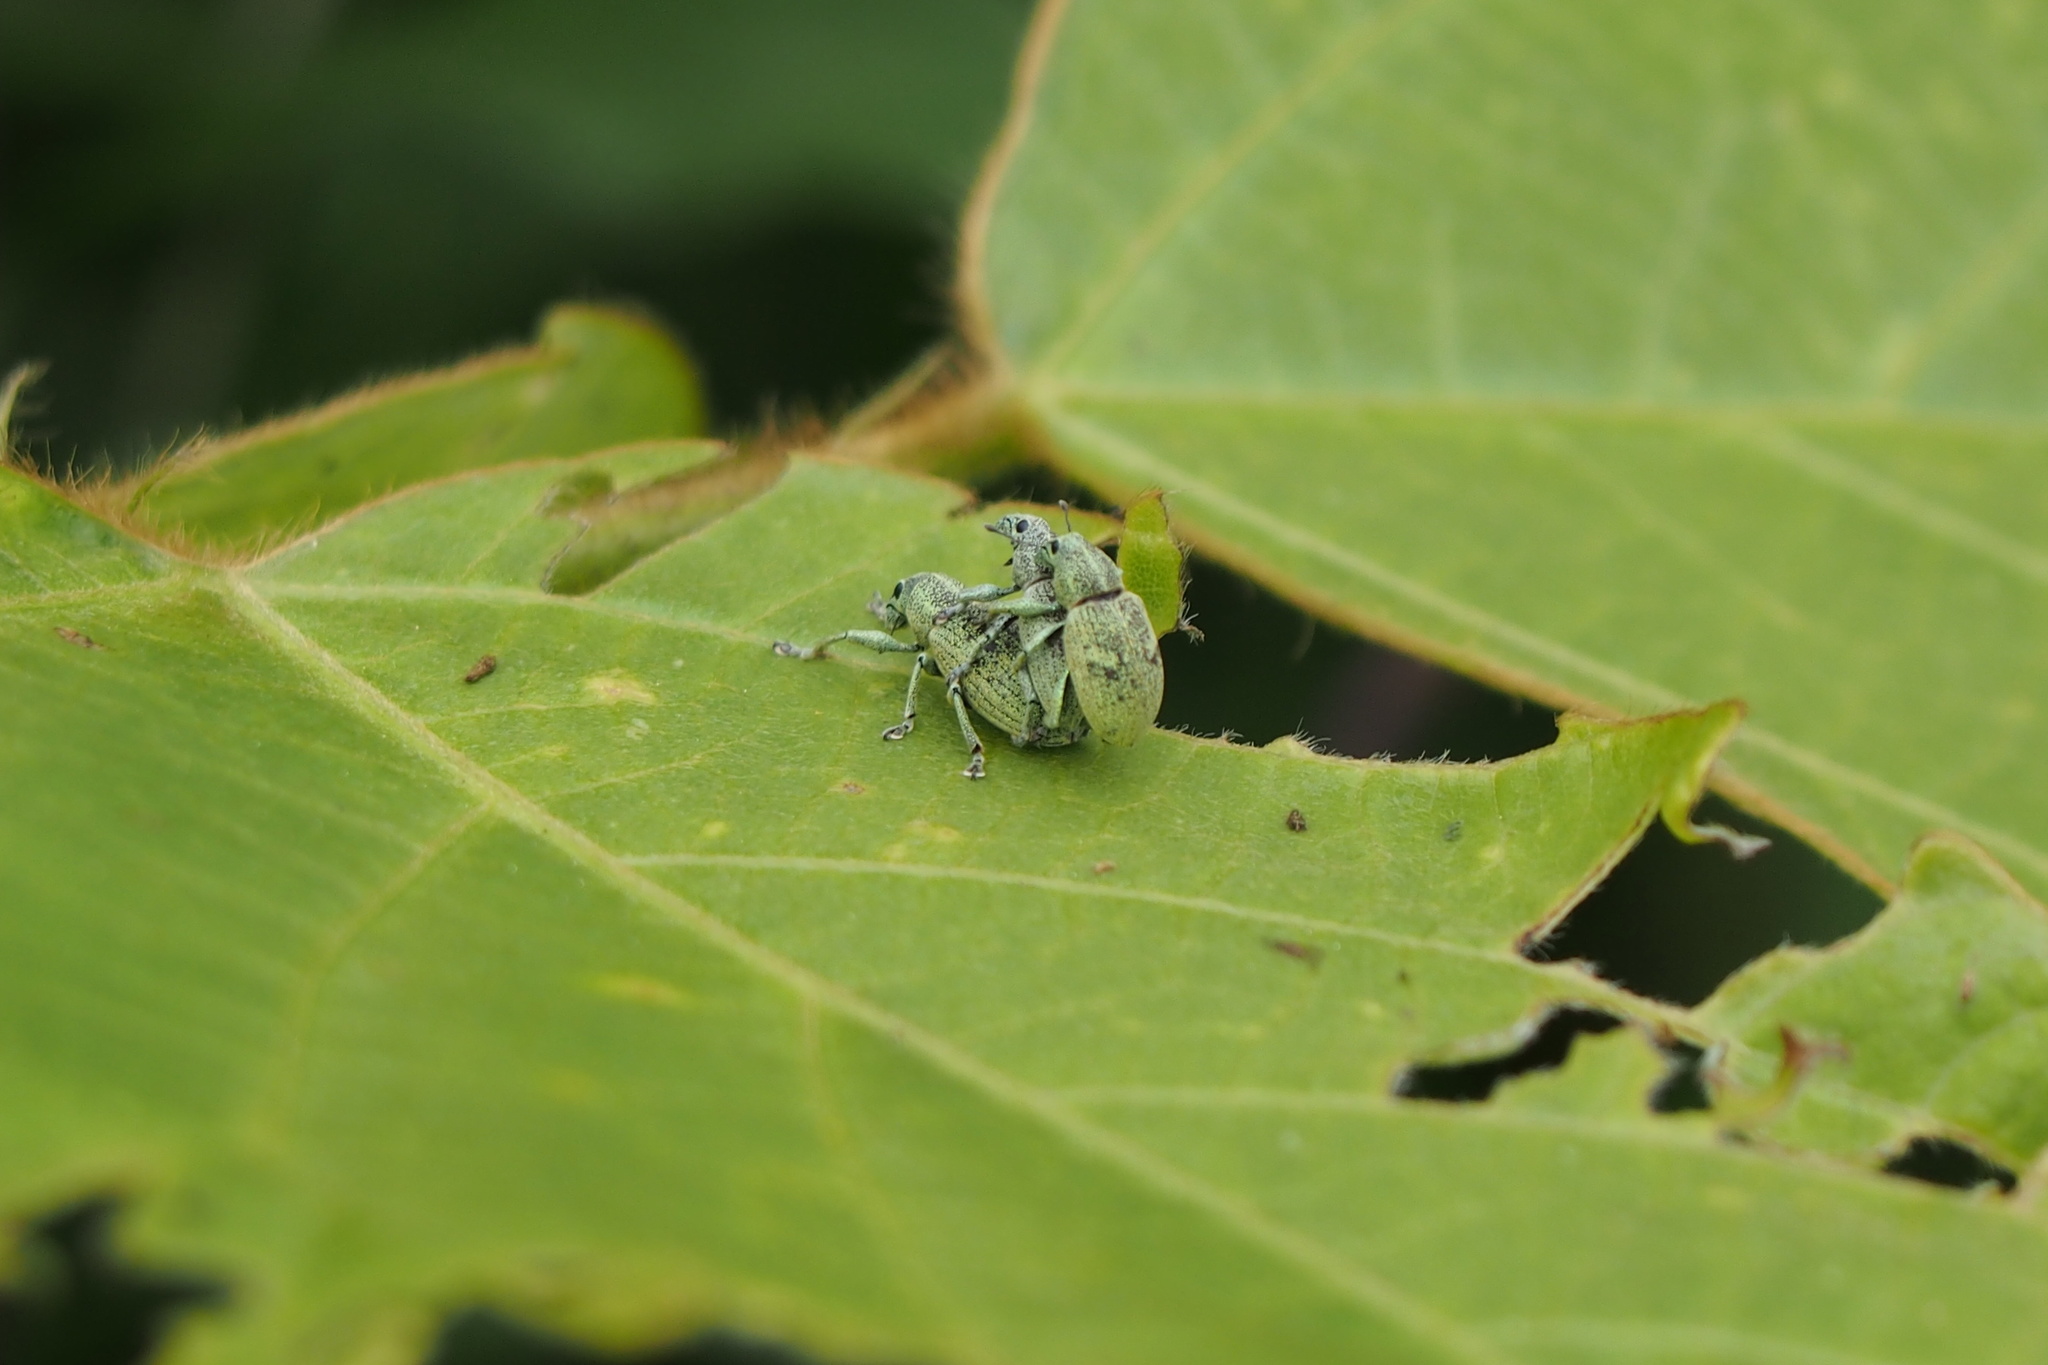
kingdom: Animalia
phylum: Arthropoda
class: Insecta
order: Coleoptera
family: Curculionidae
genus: Eugnathus
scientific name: Eugnathus distinctus
